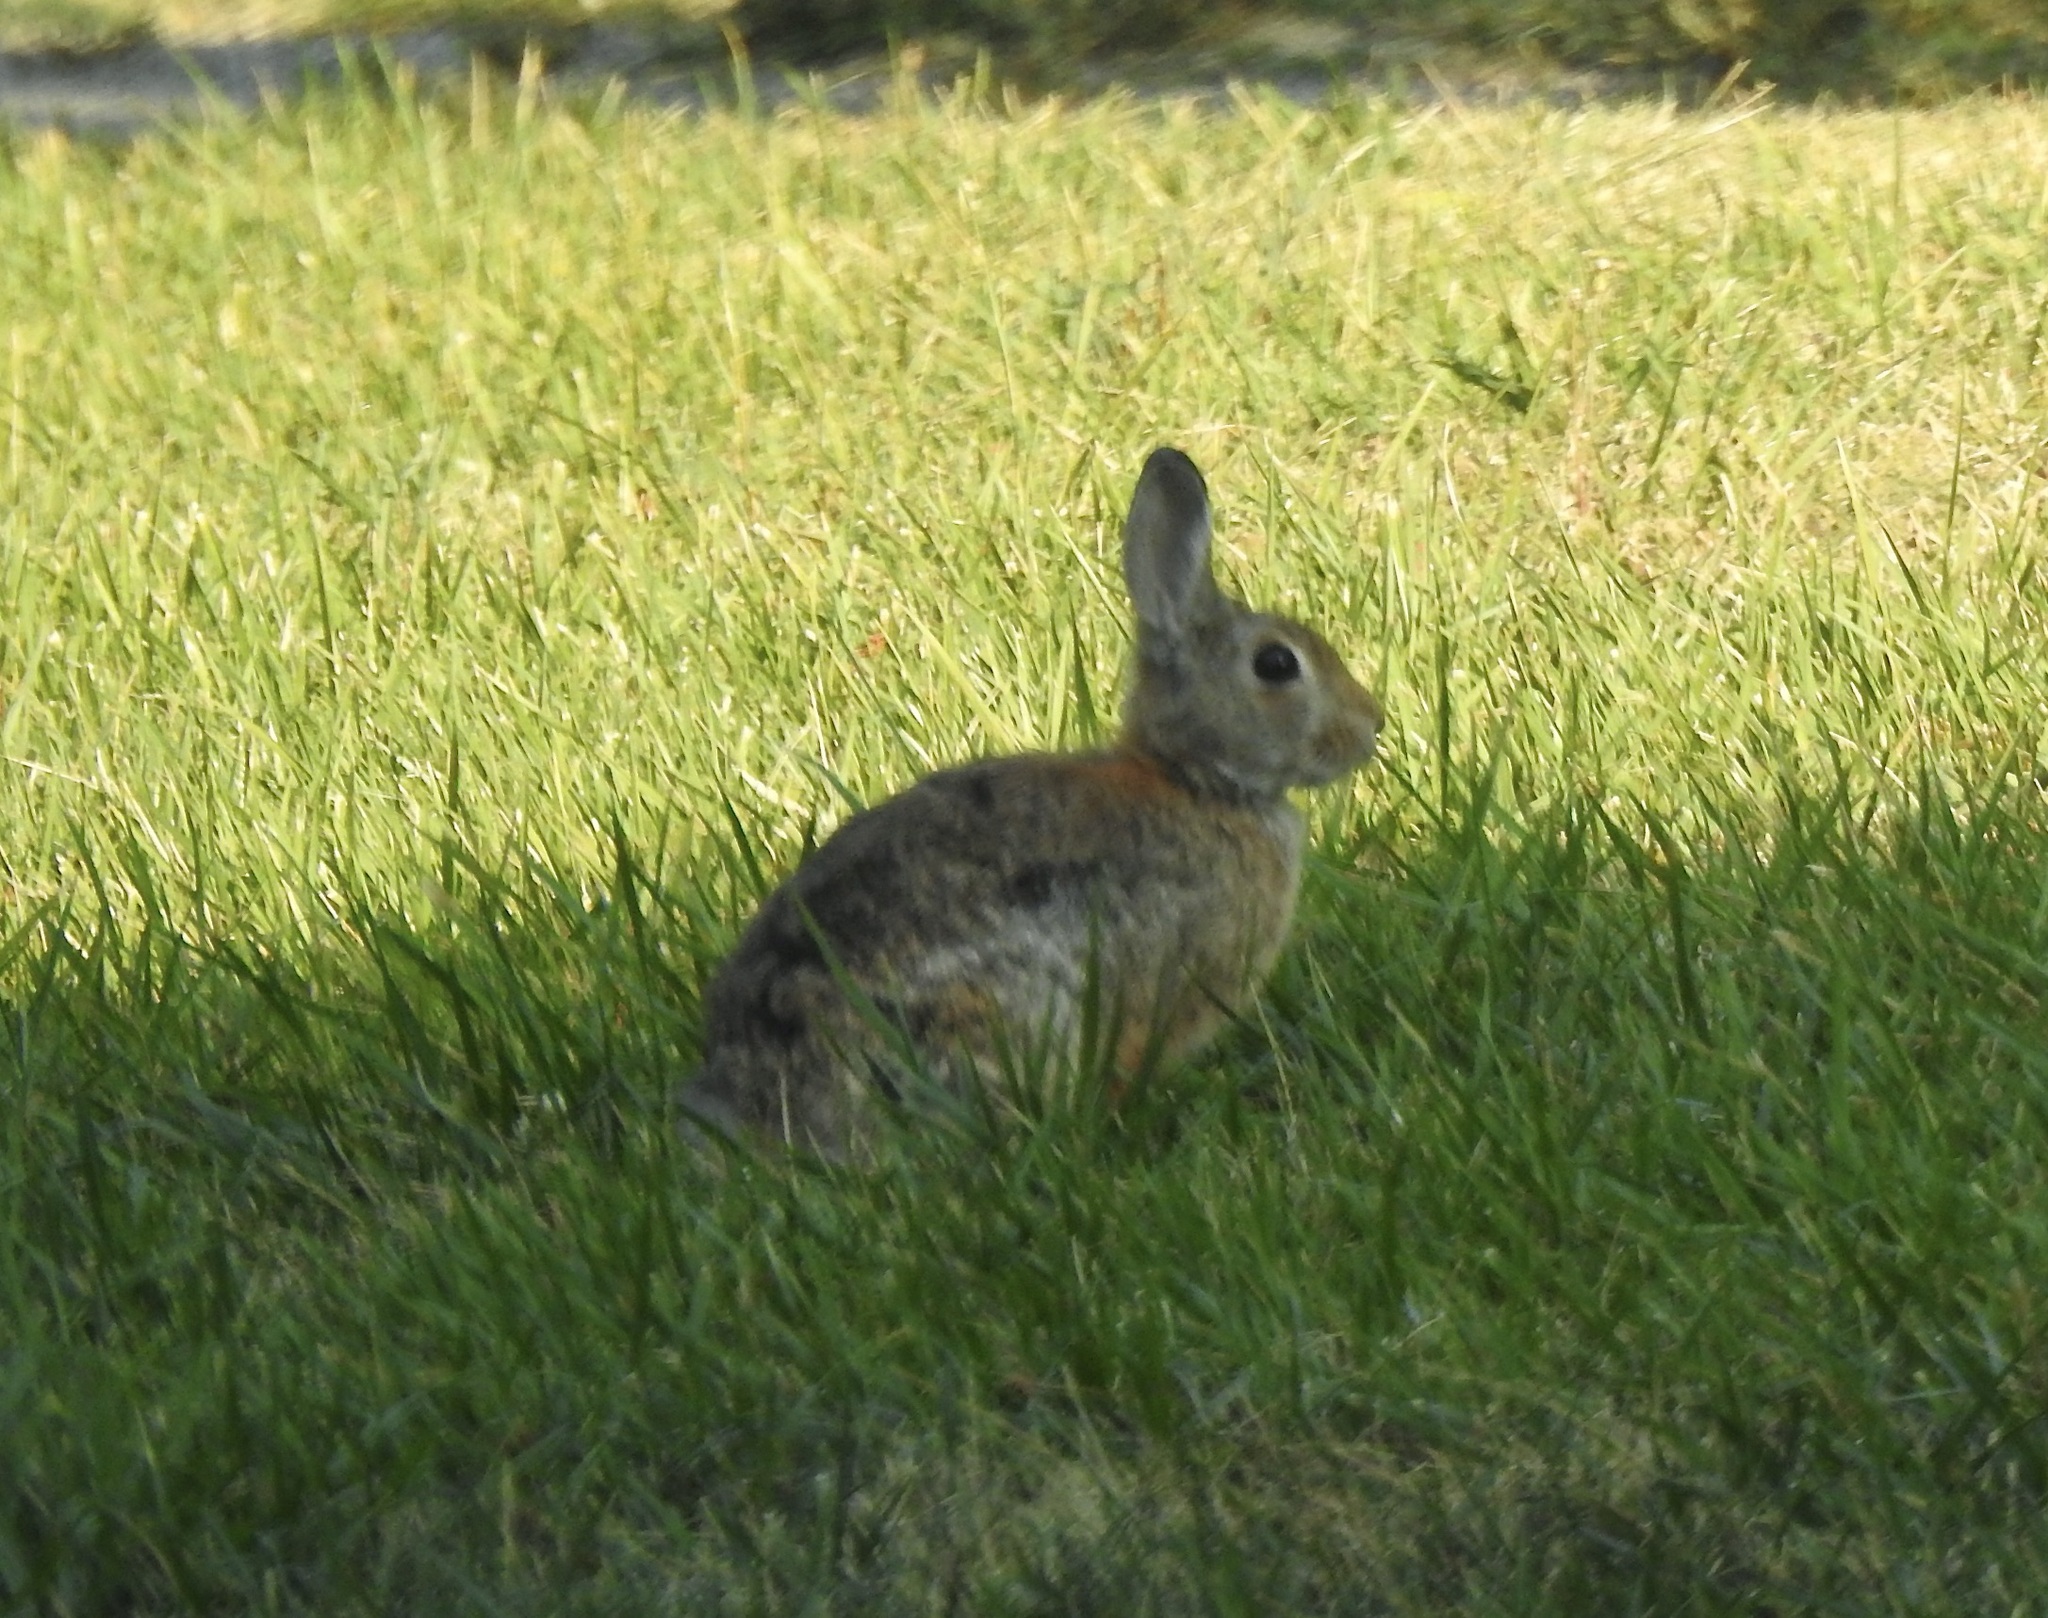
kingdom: Animalia
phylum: Chordata
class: Mammalia
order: Lagomorpha
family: Leporidae
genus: Sylvilagus
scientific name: Sylvilagus nuttallii
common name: Mountain cottontail
